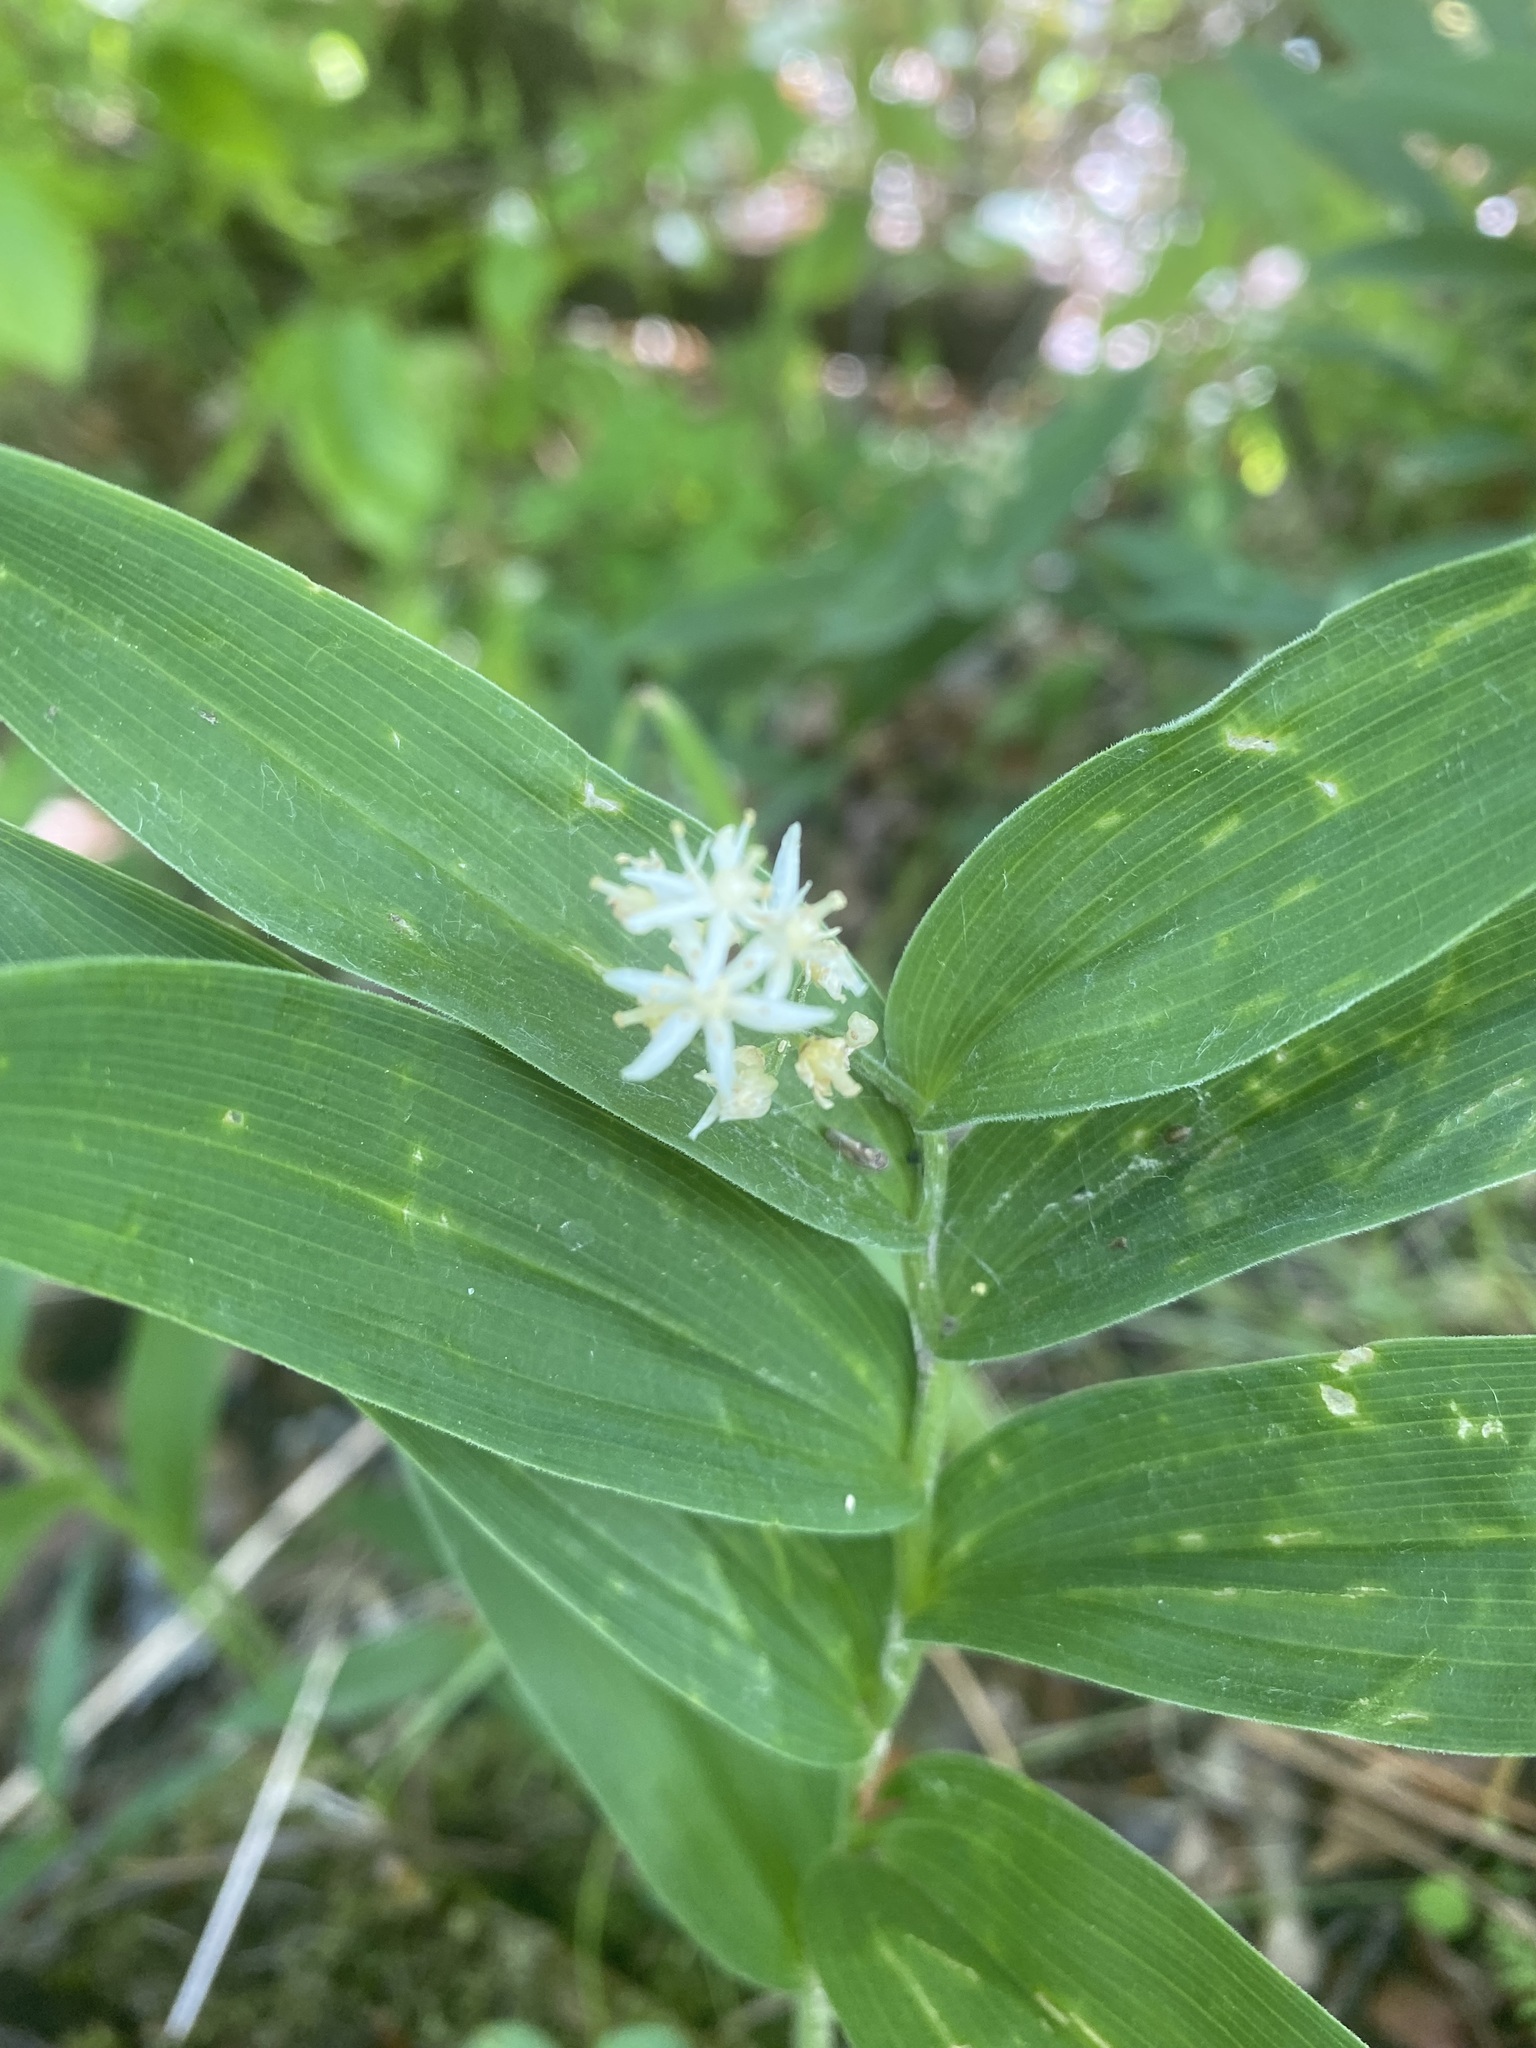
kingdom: Plantae
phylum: Tracheophyta
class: Liliopsida
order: Asparagales
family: Asparagaceae
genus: Maianthemum
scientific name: Maianthemum stellatum
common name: Little false solomon's seal
